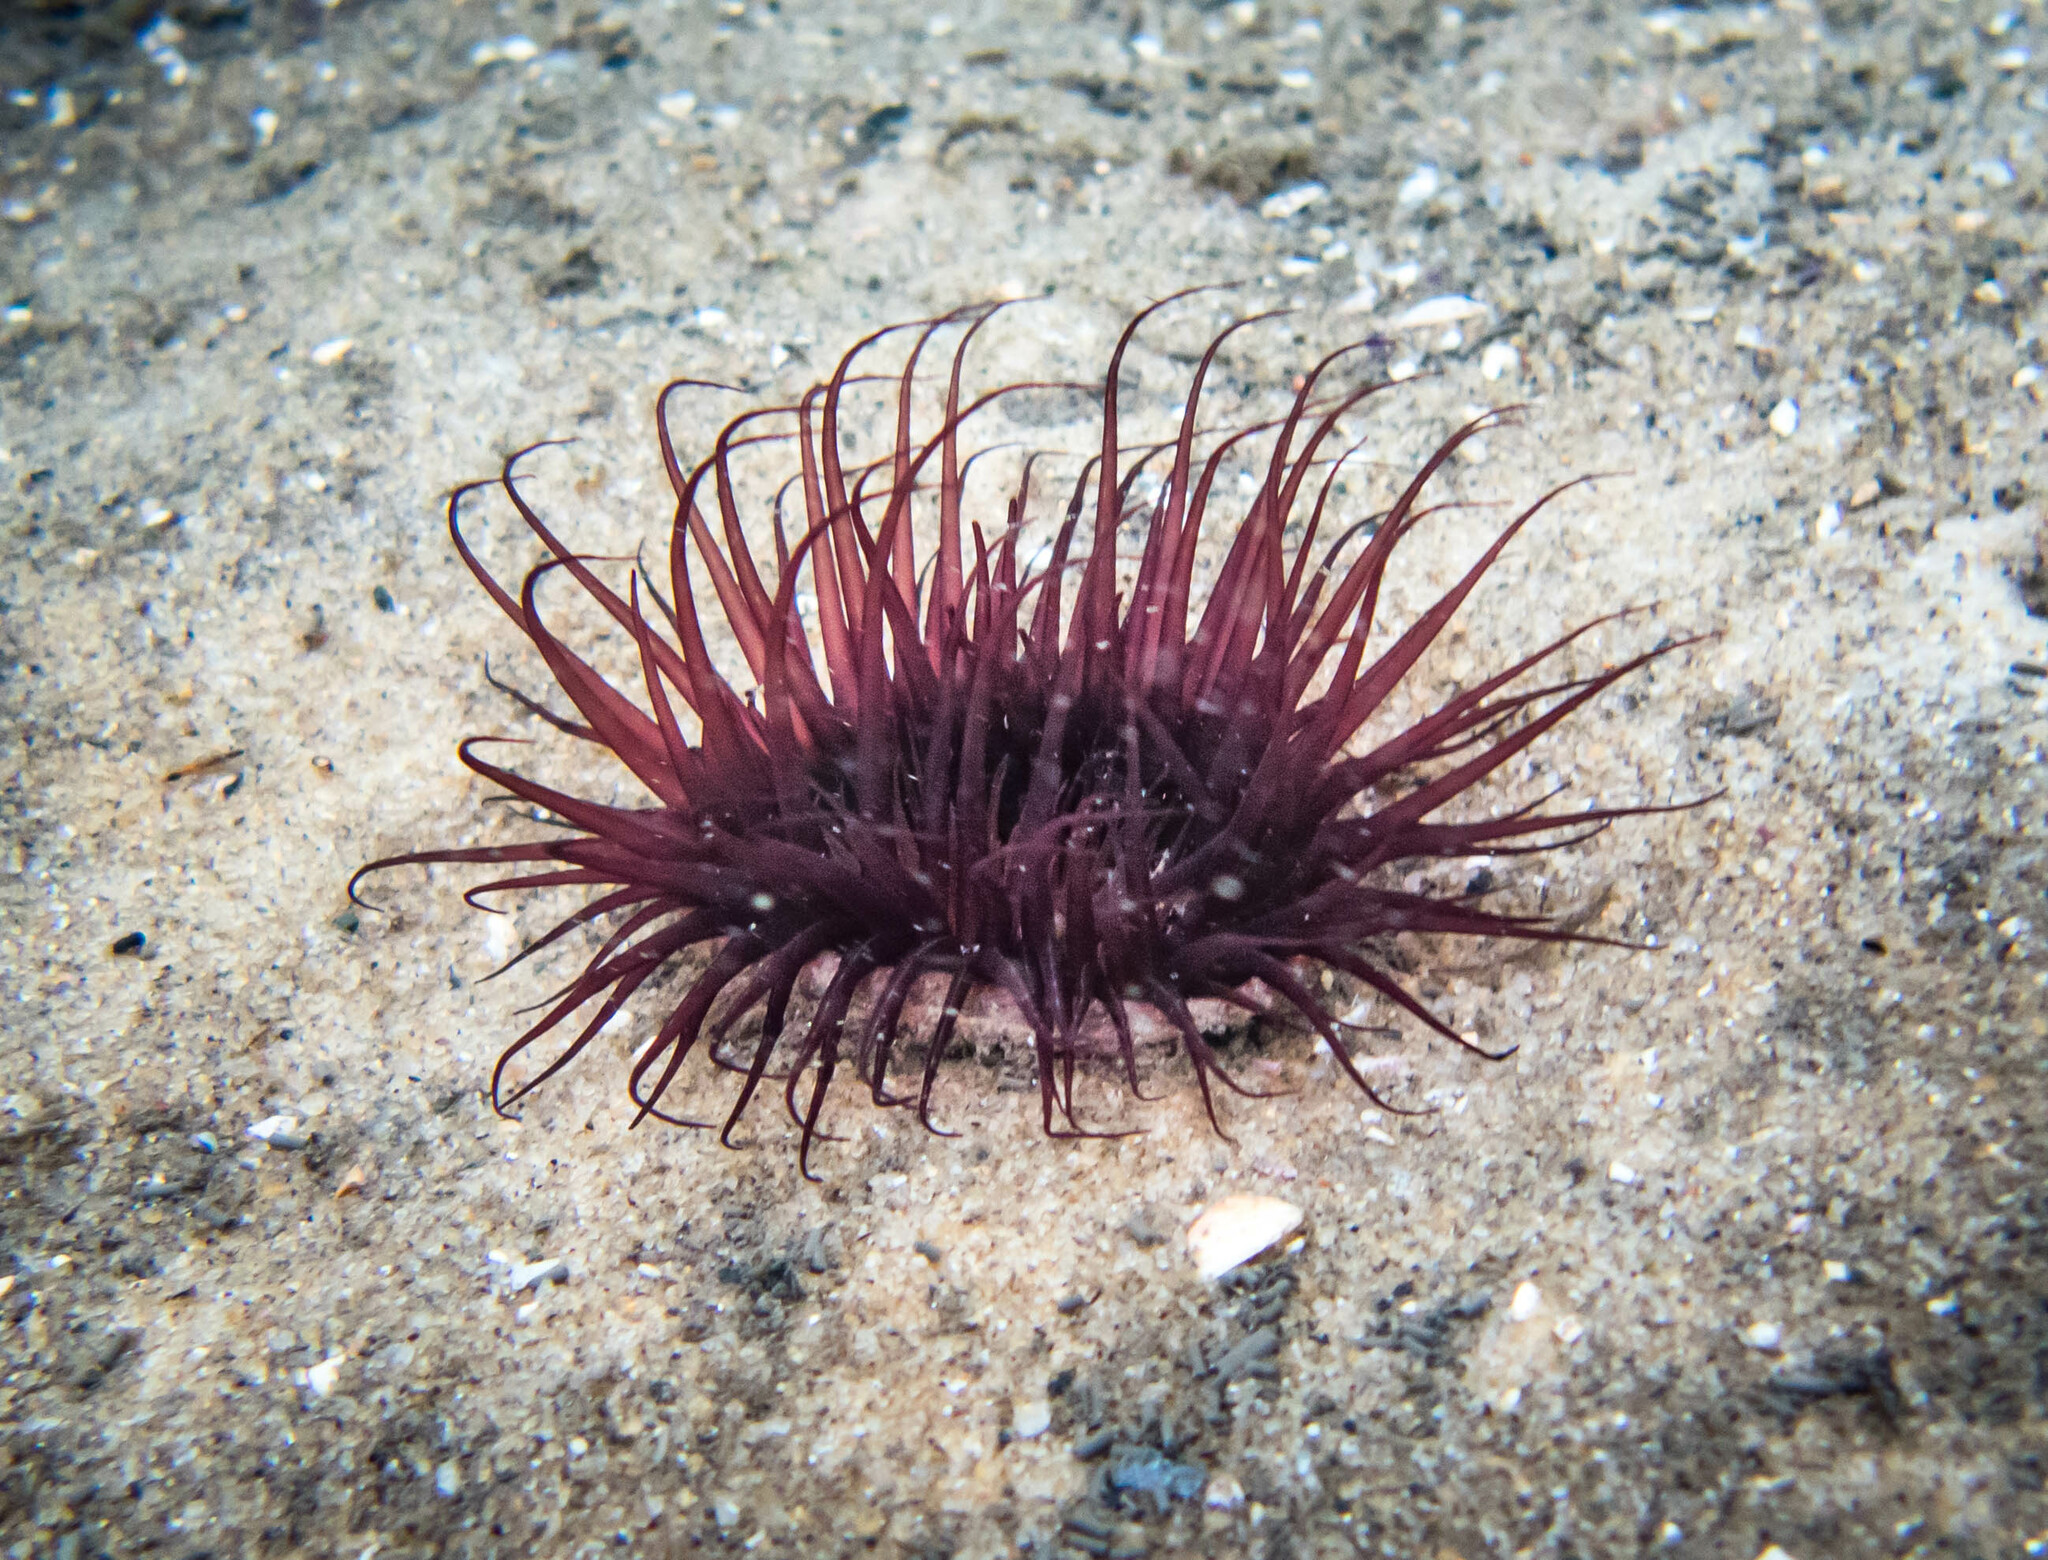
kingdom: Animalia
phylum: Cnidaria
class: Anthozoa
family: Cerianthidae
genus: Pachycerianthus
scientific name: Pachycerianthus delwynae
